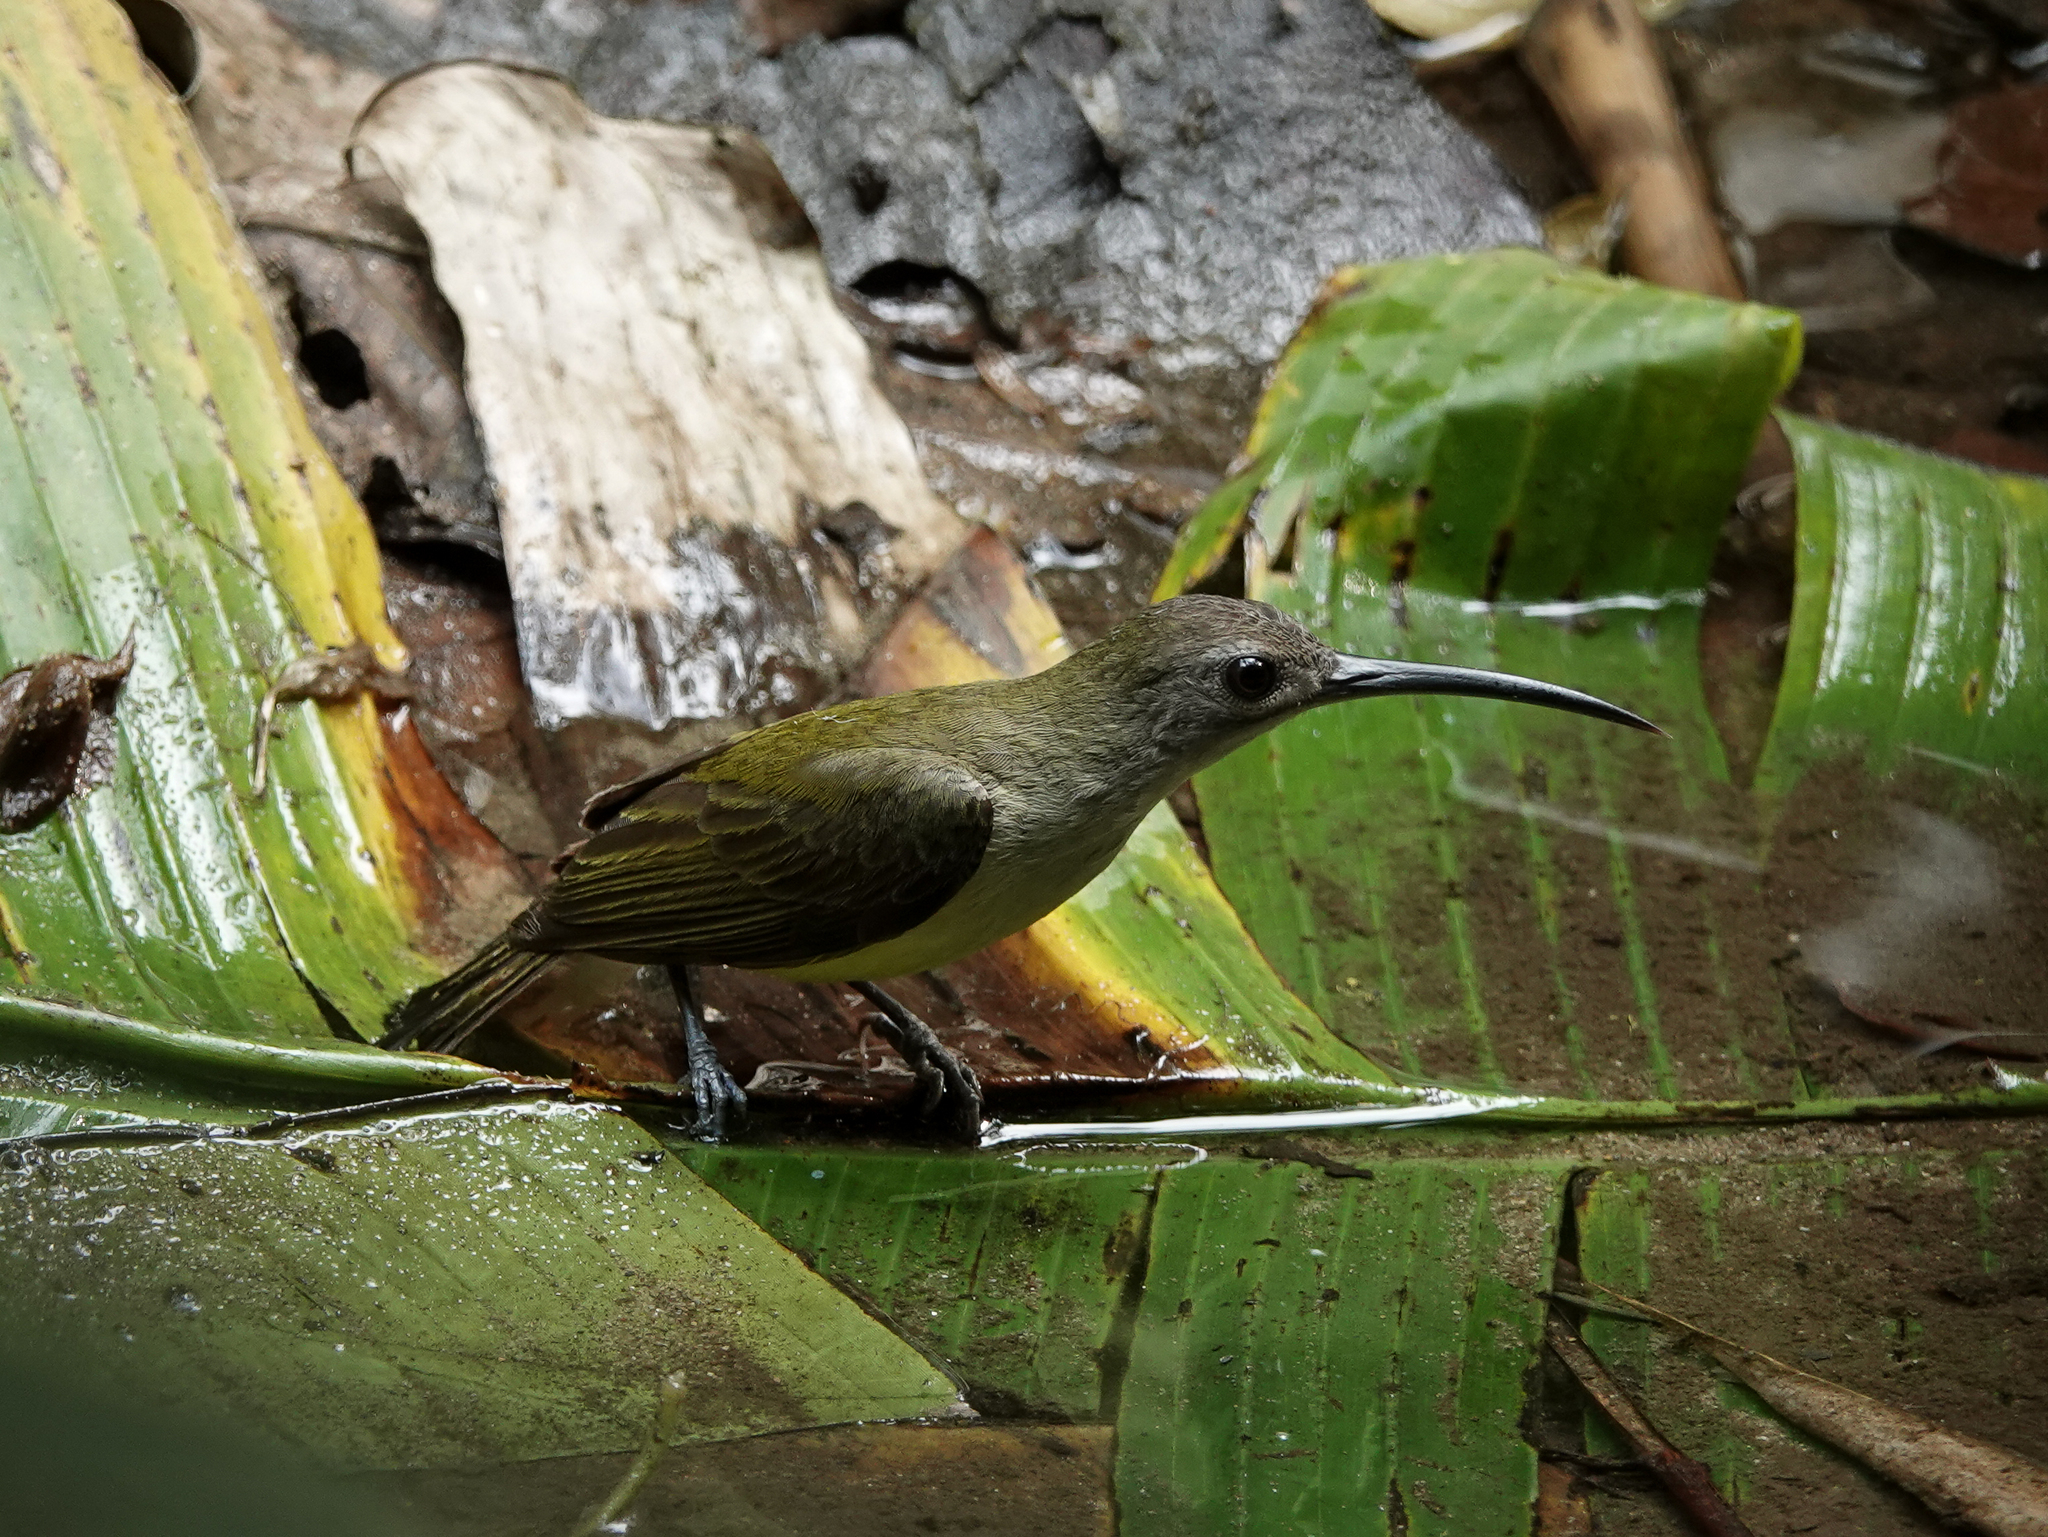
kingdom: Animalia
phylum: Chordata
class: Aves
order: Passeriformes
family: Nectariniidae
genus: Arachnothera
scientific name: Arachnothera longirostra
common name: Little spiderhunter
